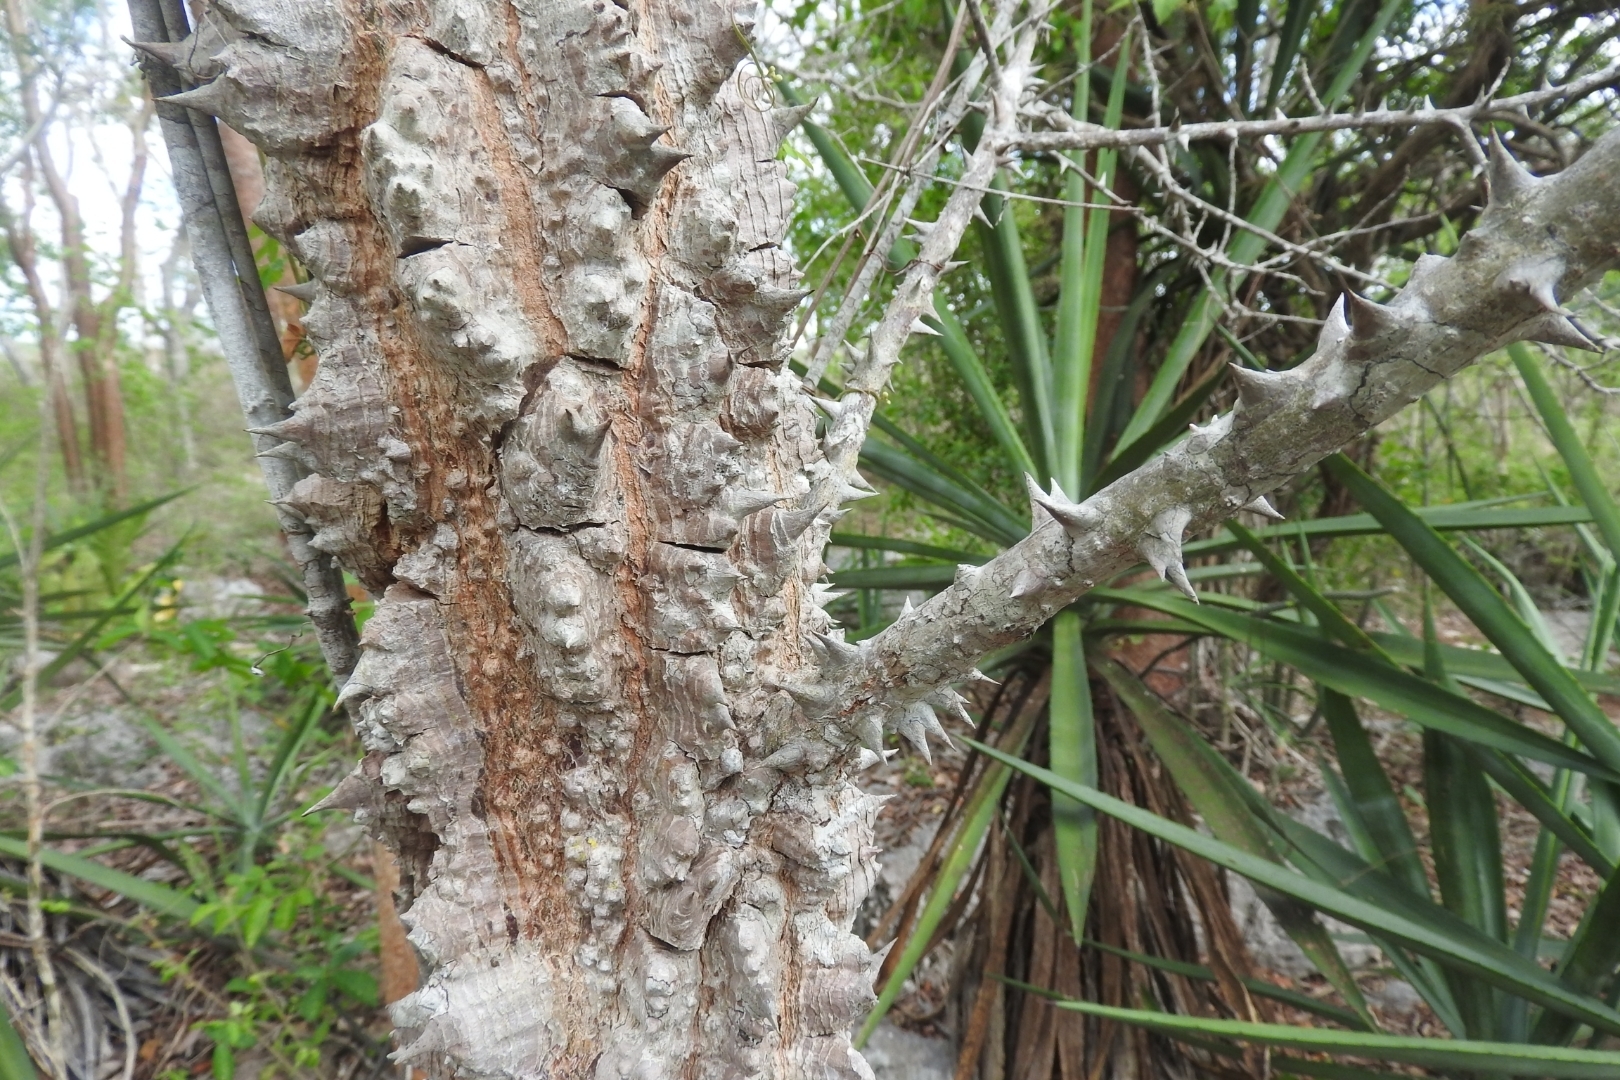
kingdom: Plantae
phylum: Tracheophyta
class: Magnoliopsida
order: Malvales
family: Malvaceae
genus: Ceiba
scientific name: Ceiba schottii
